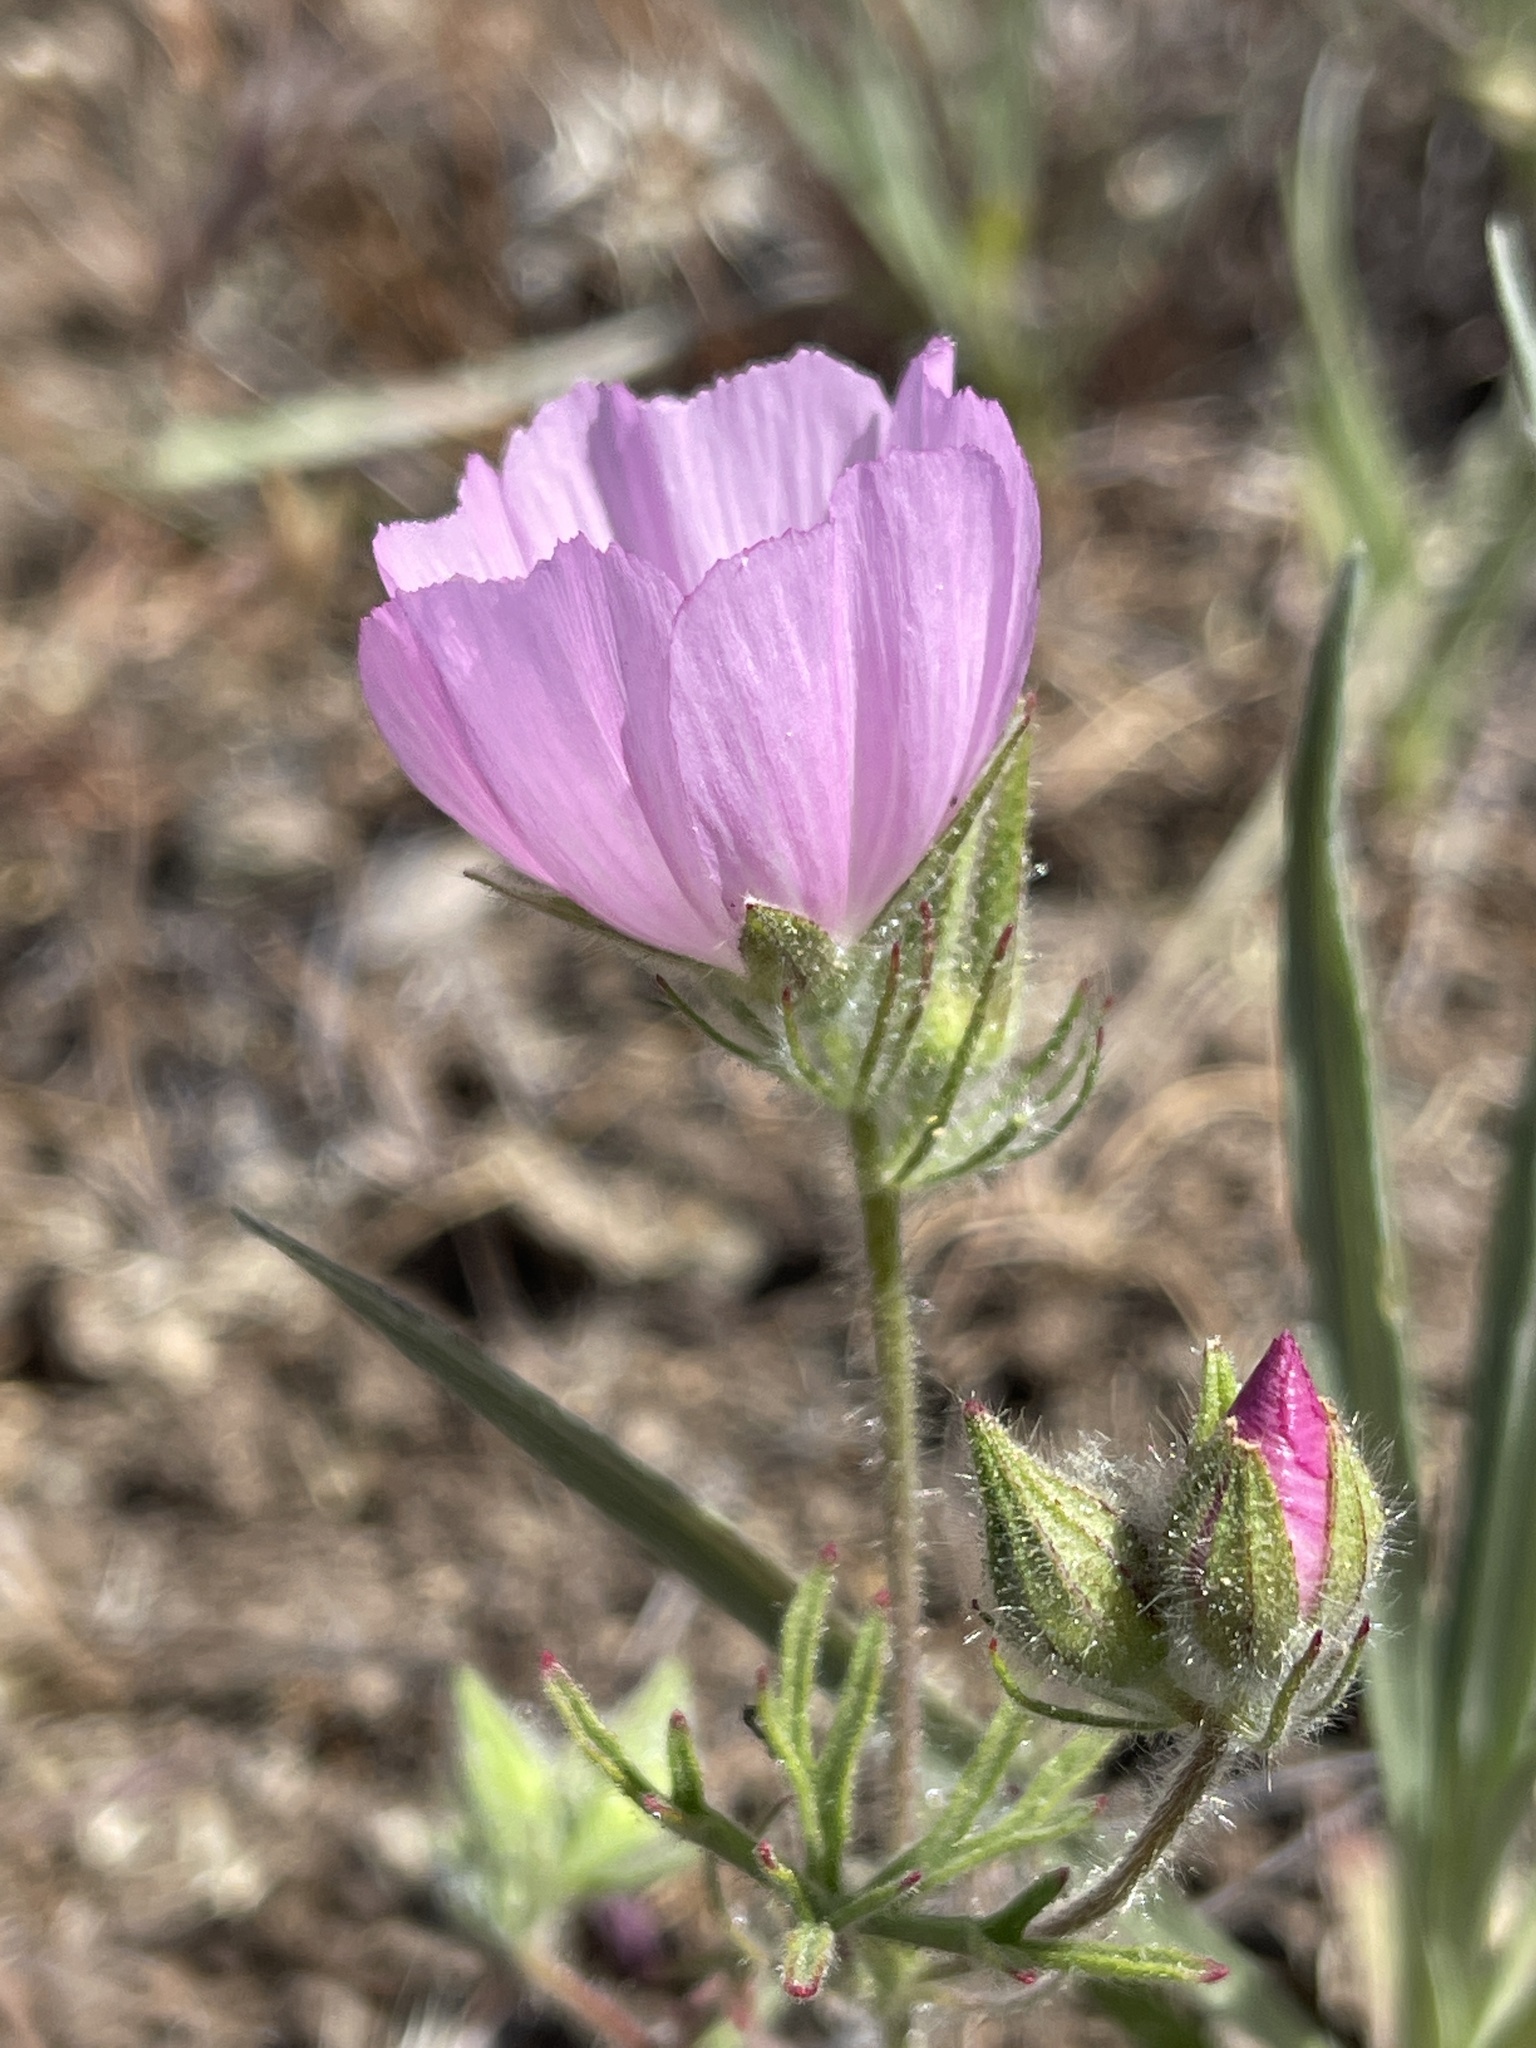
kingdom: Plantae
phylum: Tracheophyta
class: Magnoliopsida
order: Malvales
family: Malvaceae
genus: Sidalcea
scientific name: Sidalcea diploscypha
